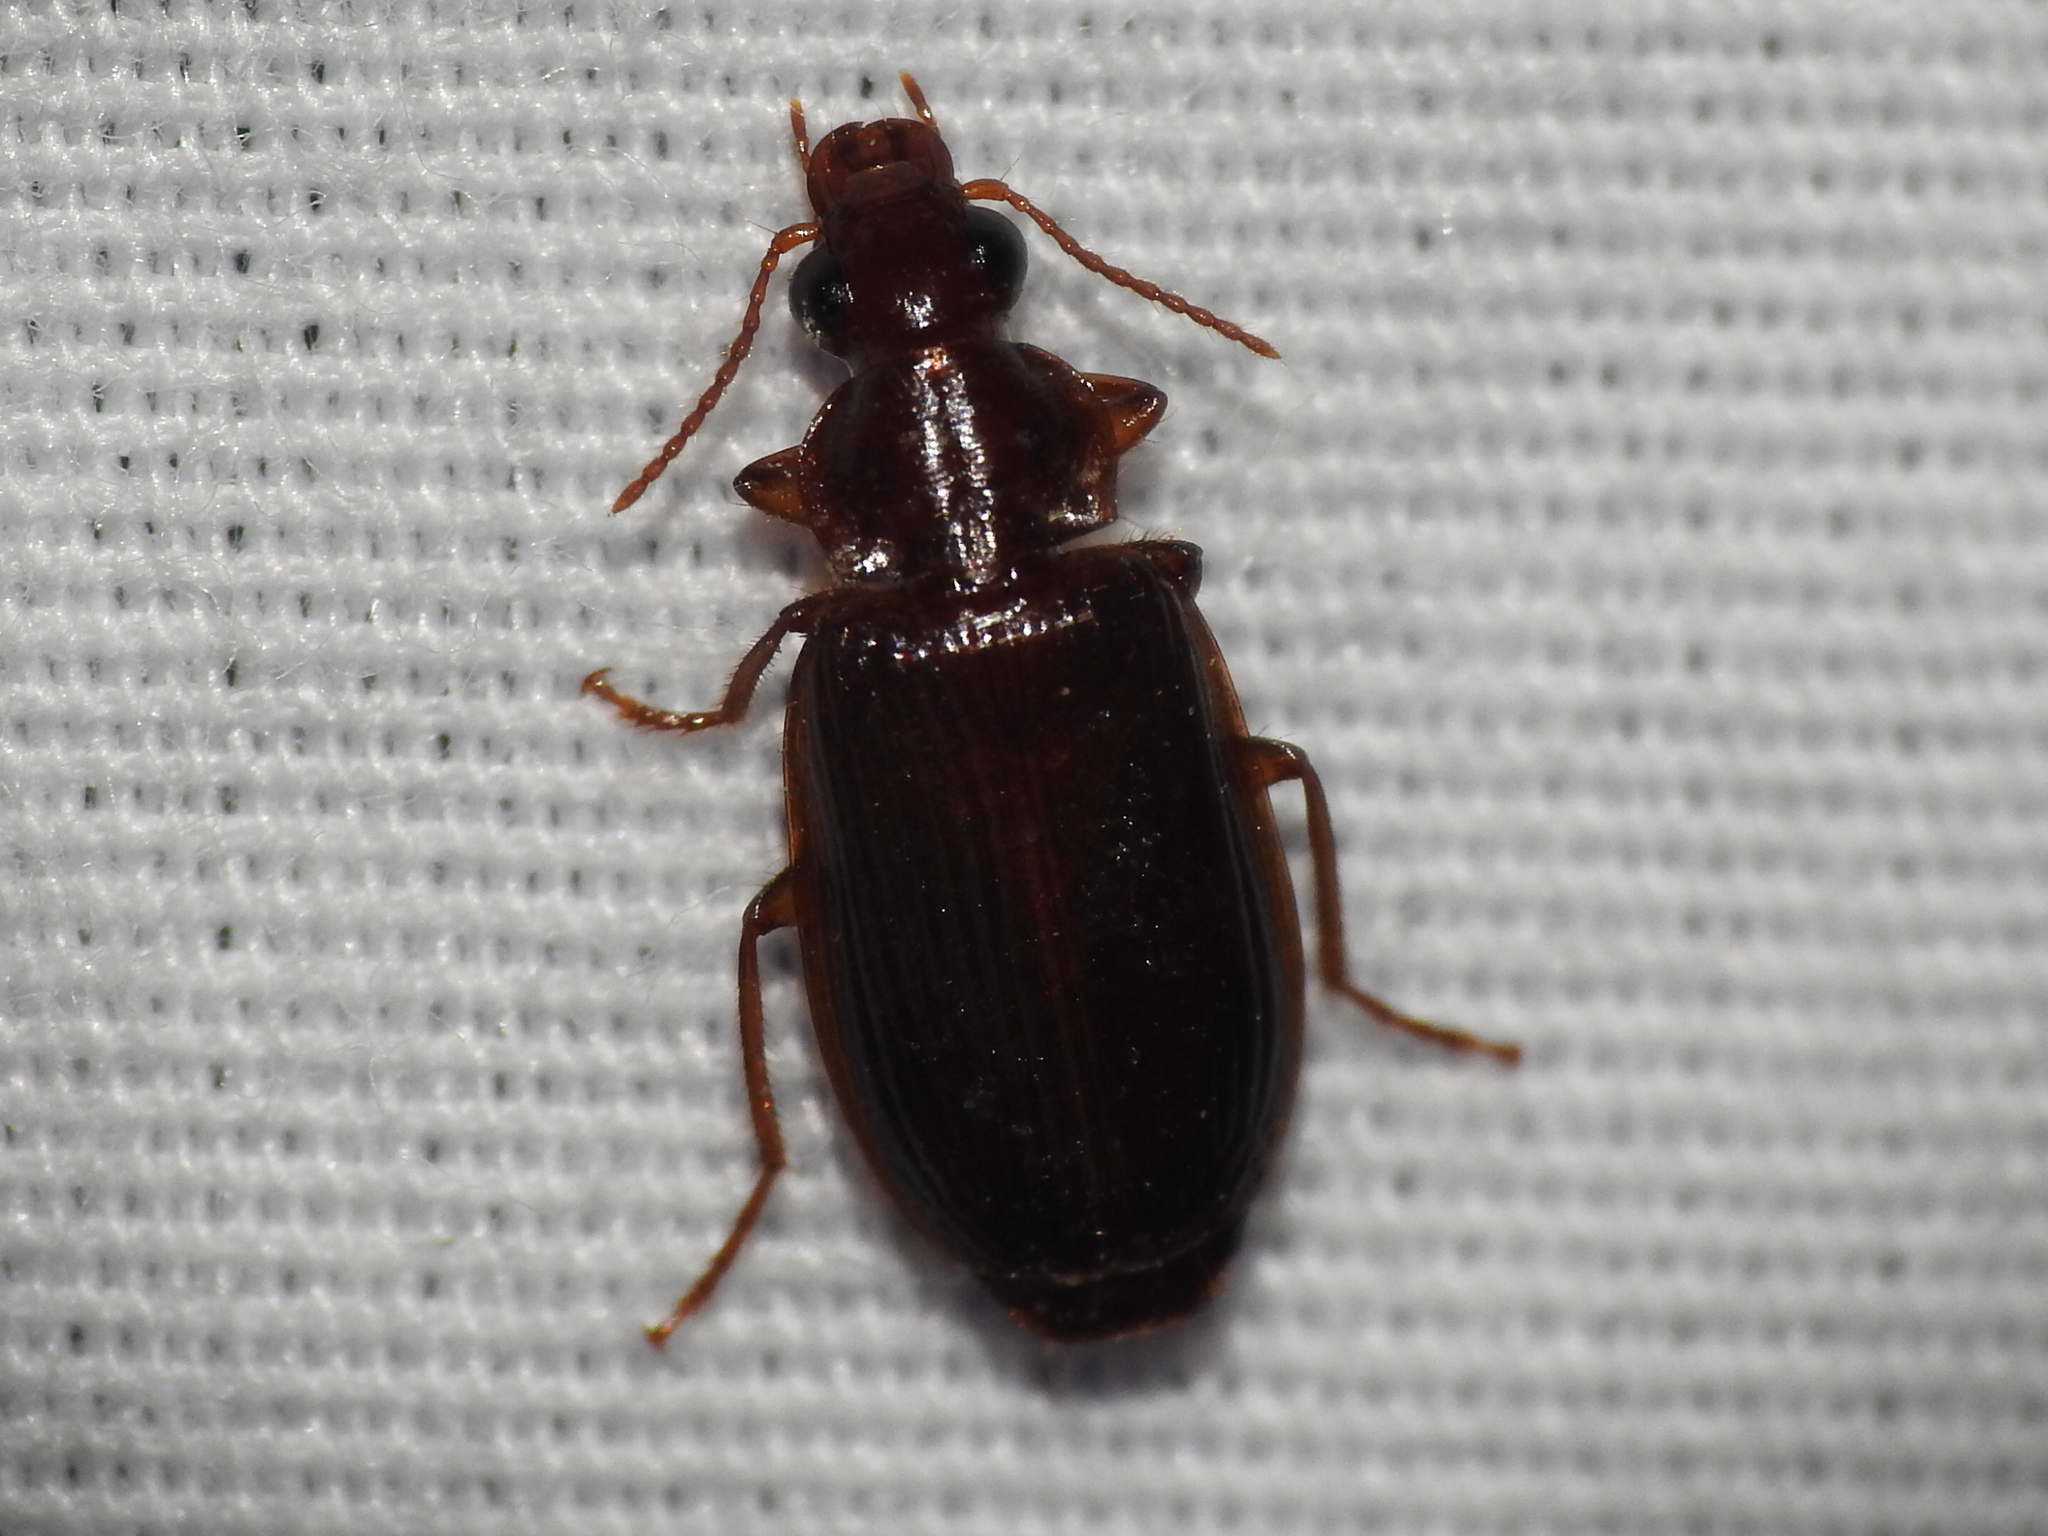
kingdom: Animalia
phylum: Arthropoda
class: Insecta
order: Coleoptera
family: Carabidae
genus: Plochionus
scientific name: Plochionus timidus
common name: Timid harp ground beetle
